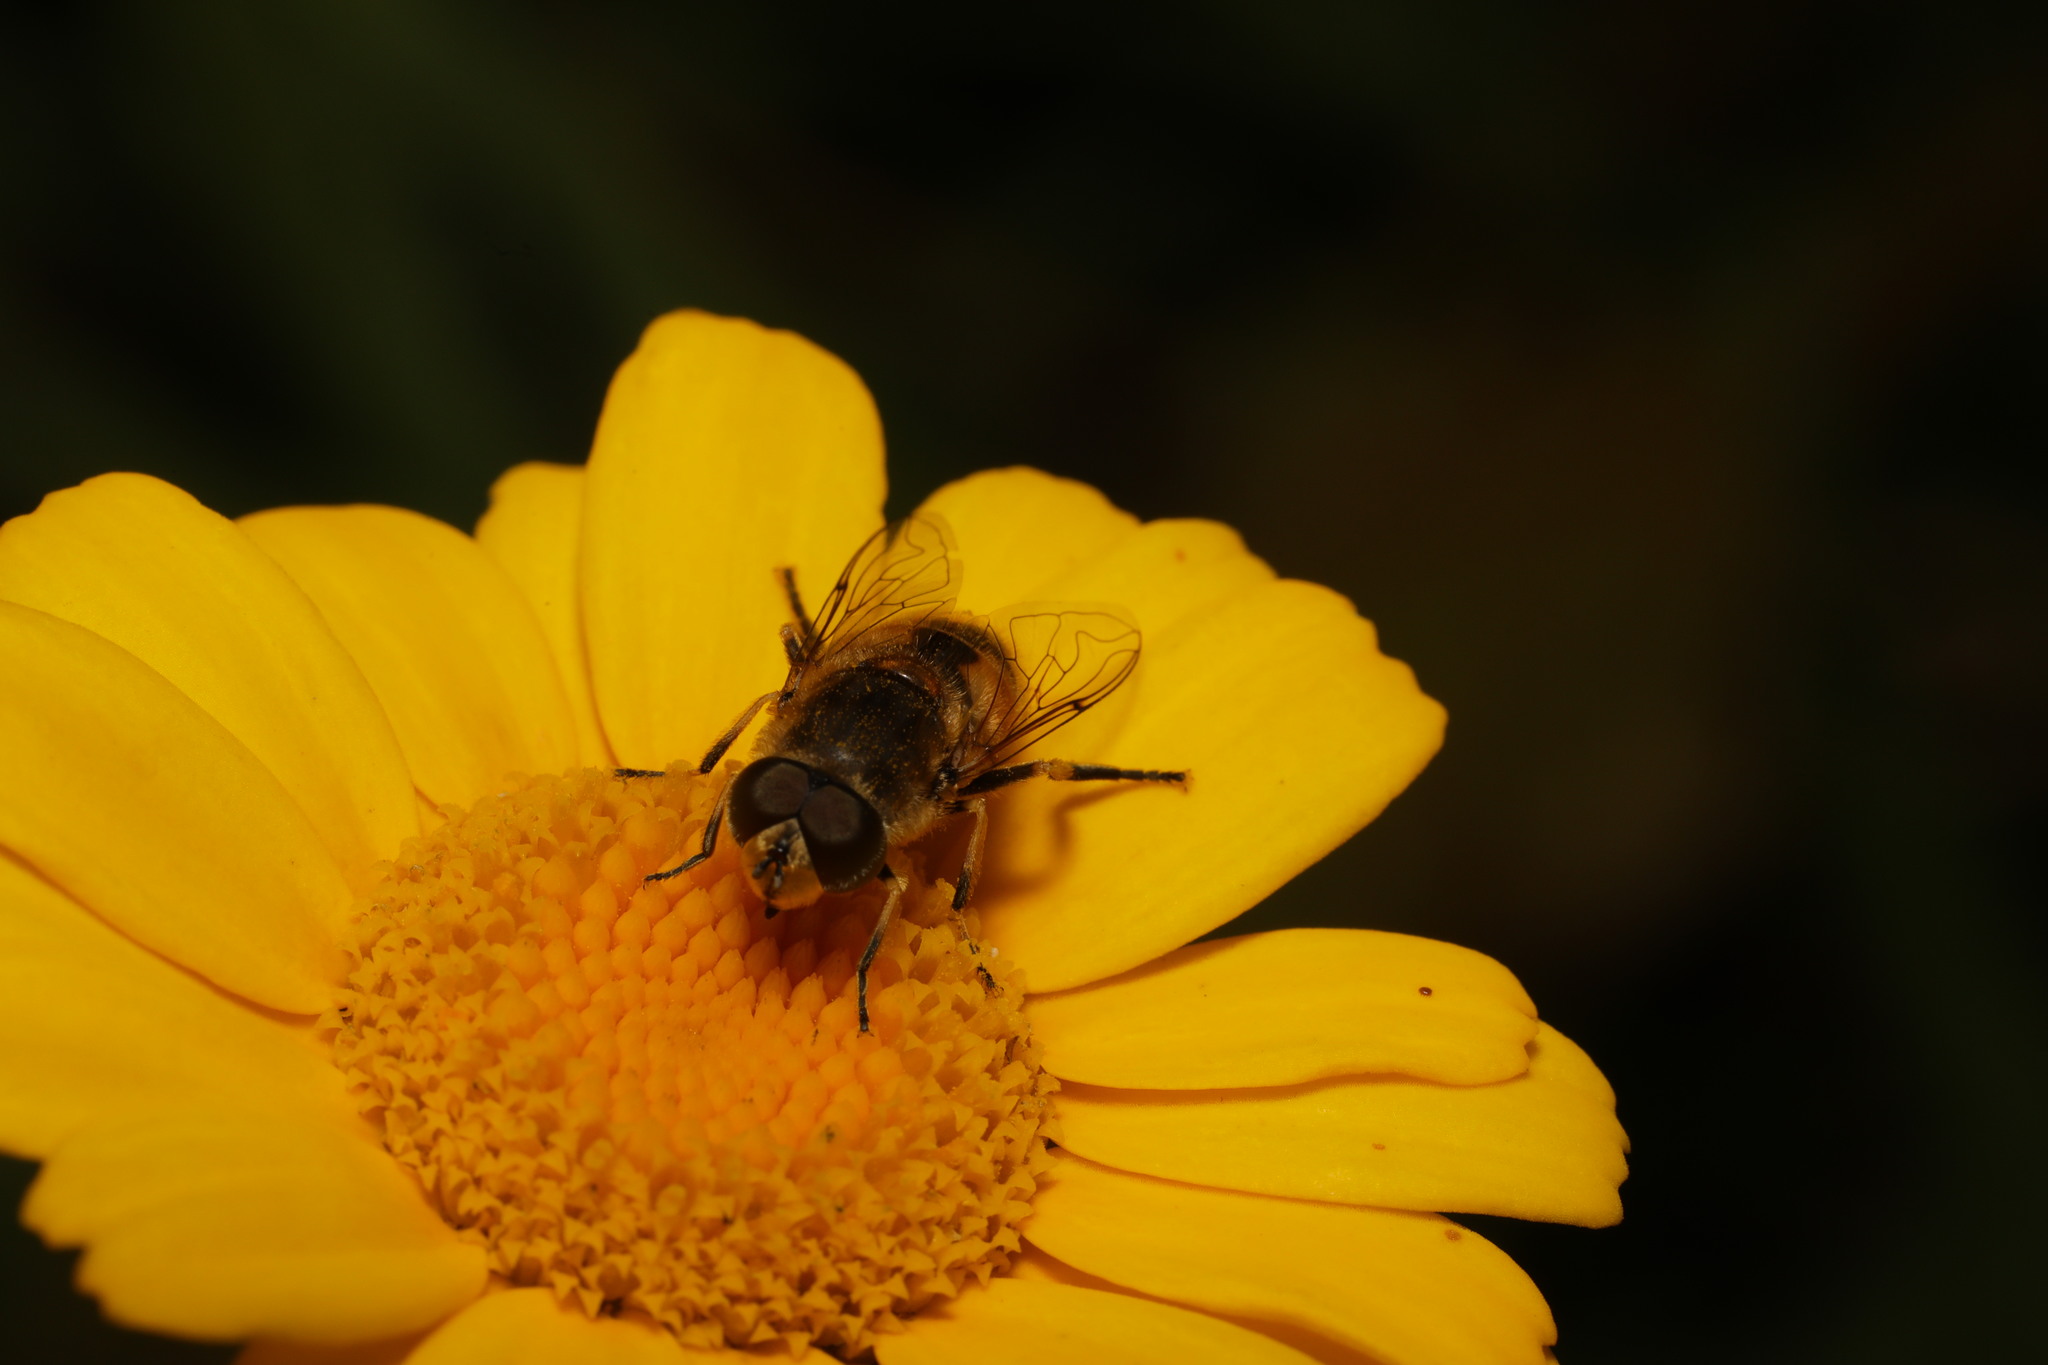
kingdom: Animalia
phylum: Arthropoda
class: Insecta
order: Diptera
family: Syrphidae
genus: Eristalis
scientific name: Eristalis arbustorum
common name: Hover fly
